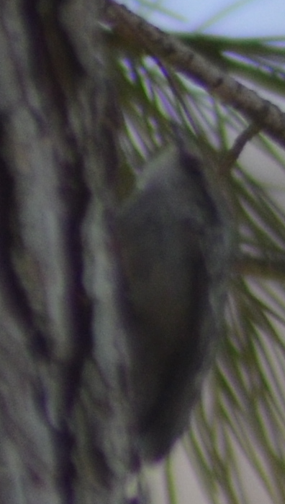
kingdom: Animalia
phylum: Chordata
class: Aves
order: Passeriformes
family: Certhiidae
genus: Certhia
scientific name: Certhia brachydactyla
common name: Short-toed treecreeper
